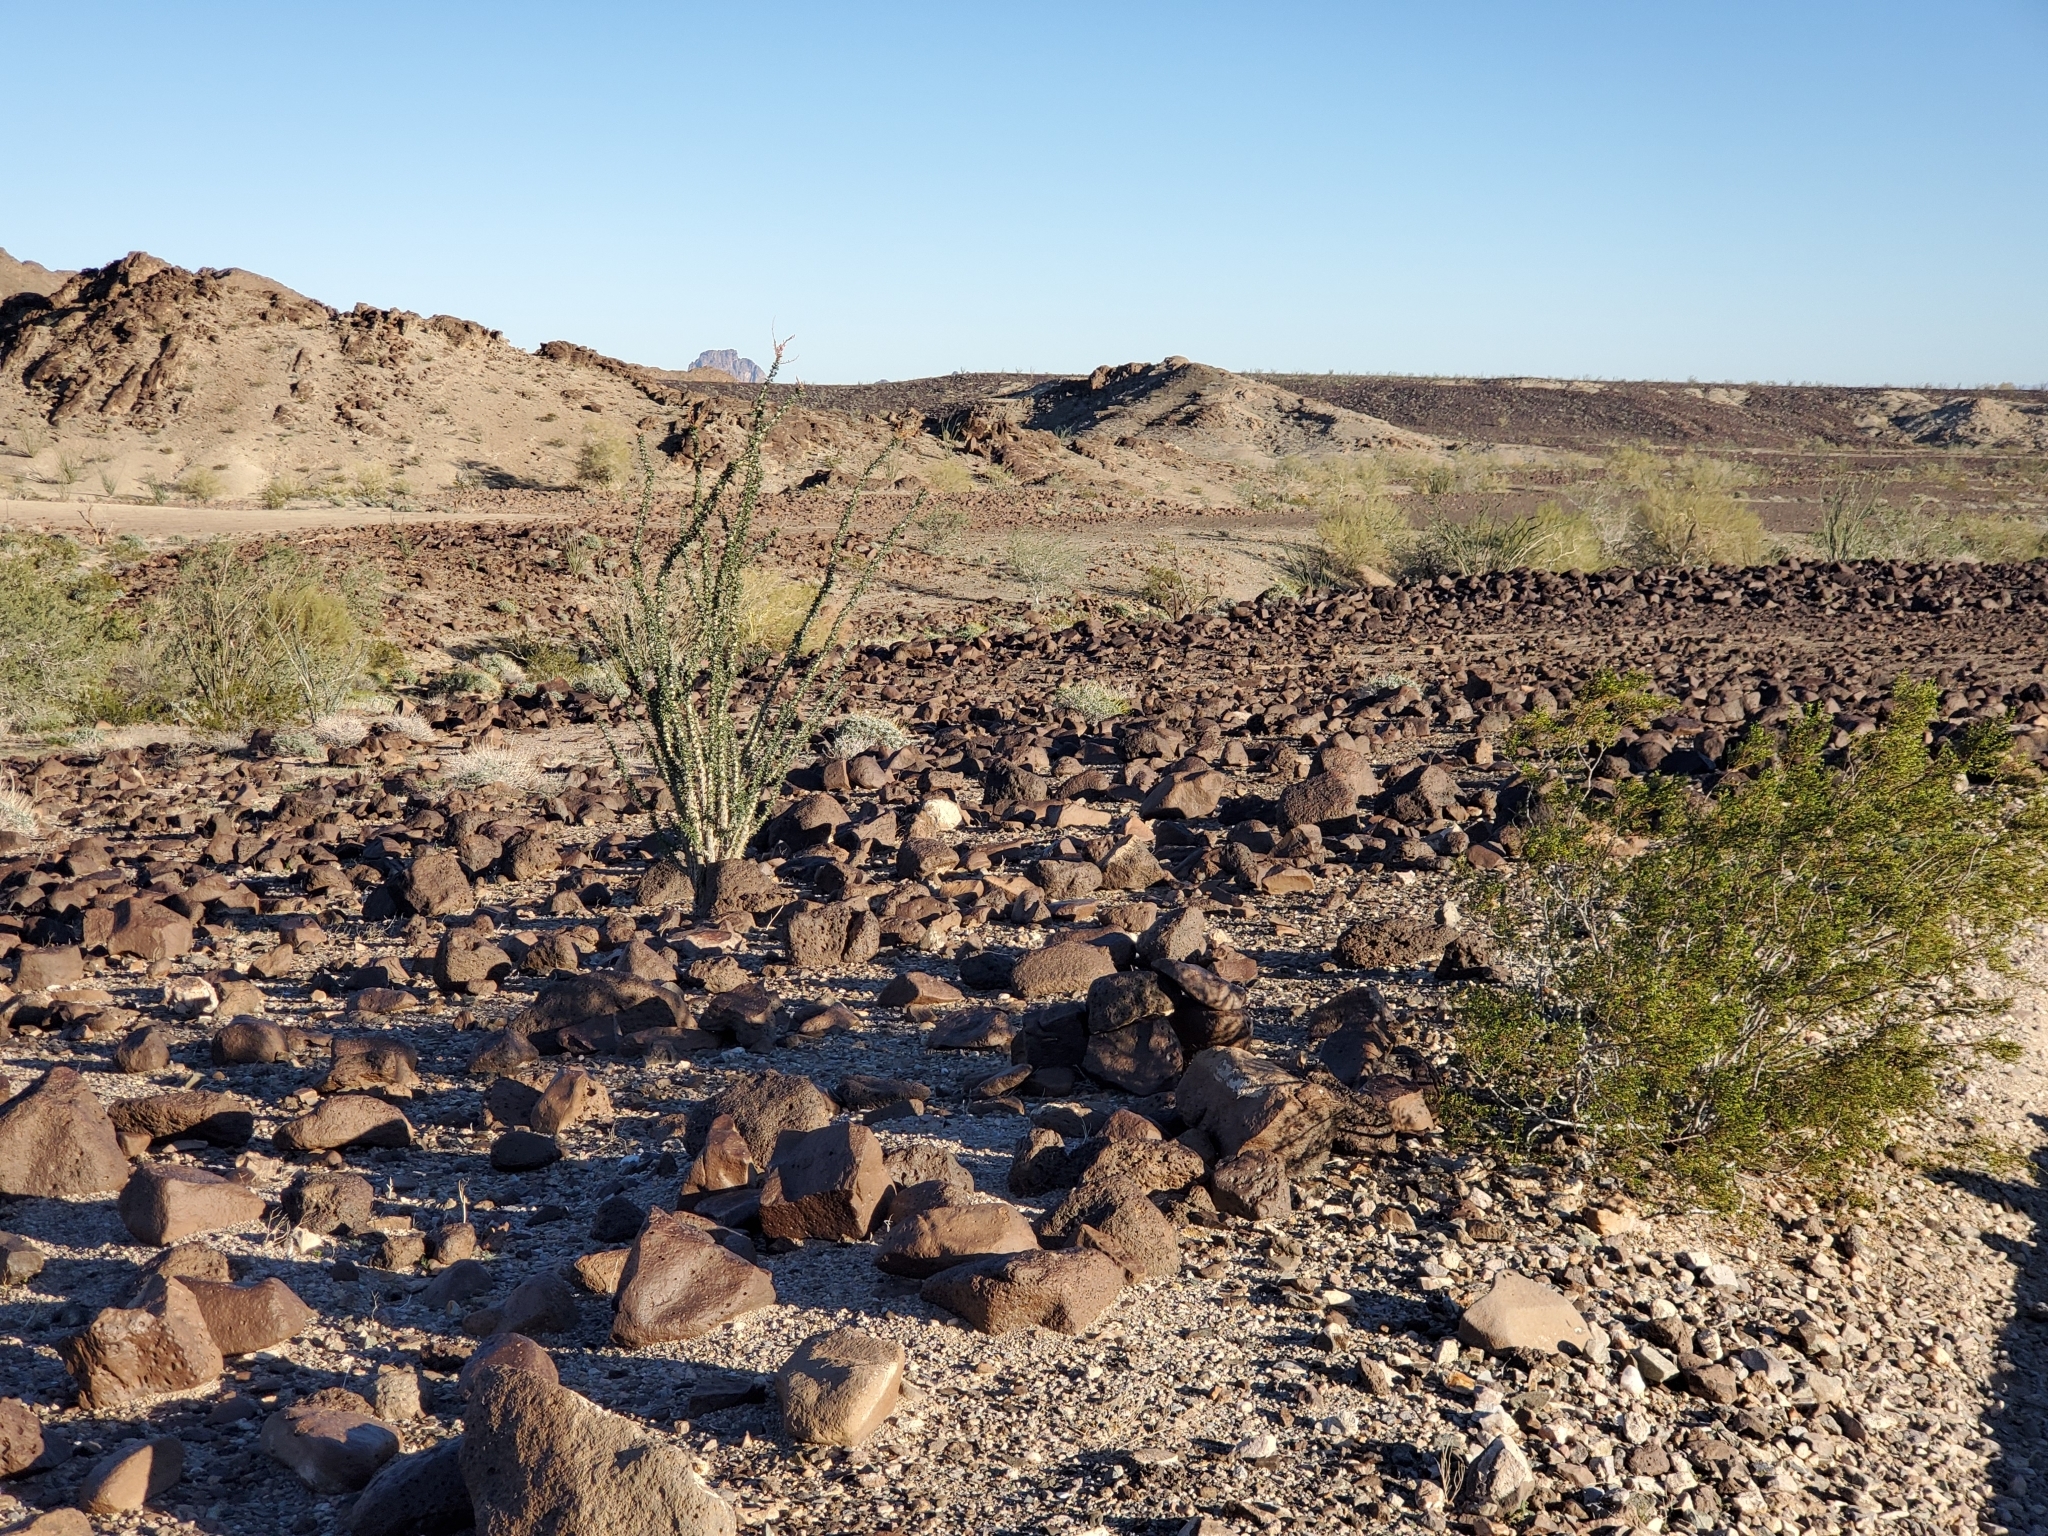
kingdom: Plantae
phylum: Tracheophyta
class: Magnoliopsida
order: Zygophyllales
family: Zygophyllaceae
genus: Larrea
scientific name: Larrea tridentata
